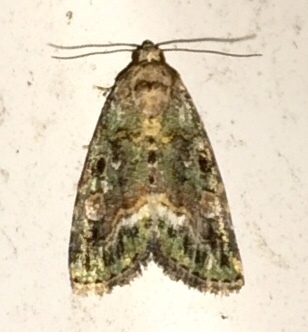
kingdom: Animalia
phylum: Arthropoda
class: Insecta
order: Lepidoptera
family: Noctuidae
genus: Lithacodia
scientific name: Lithacodia musta
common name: Small mossy glyph
